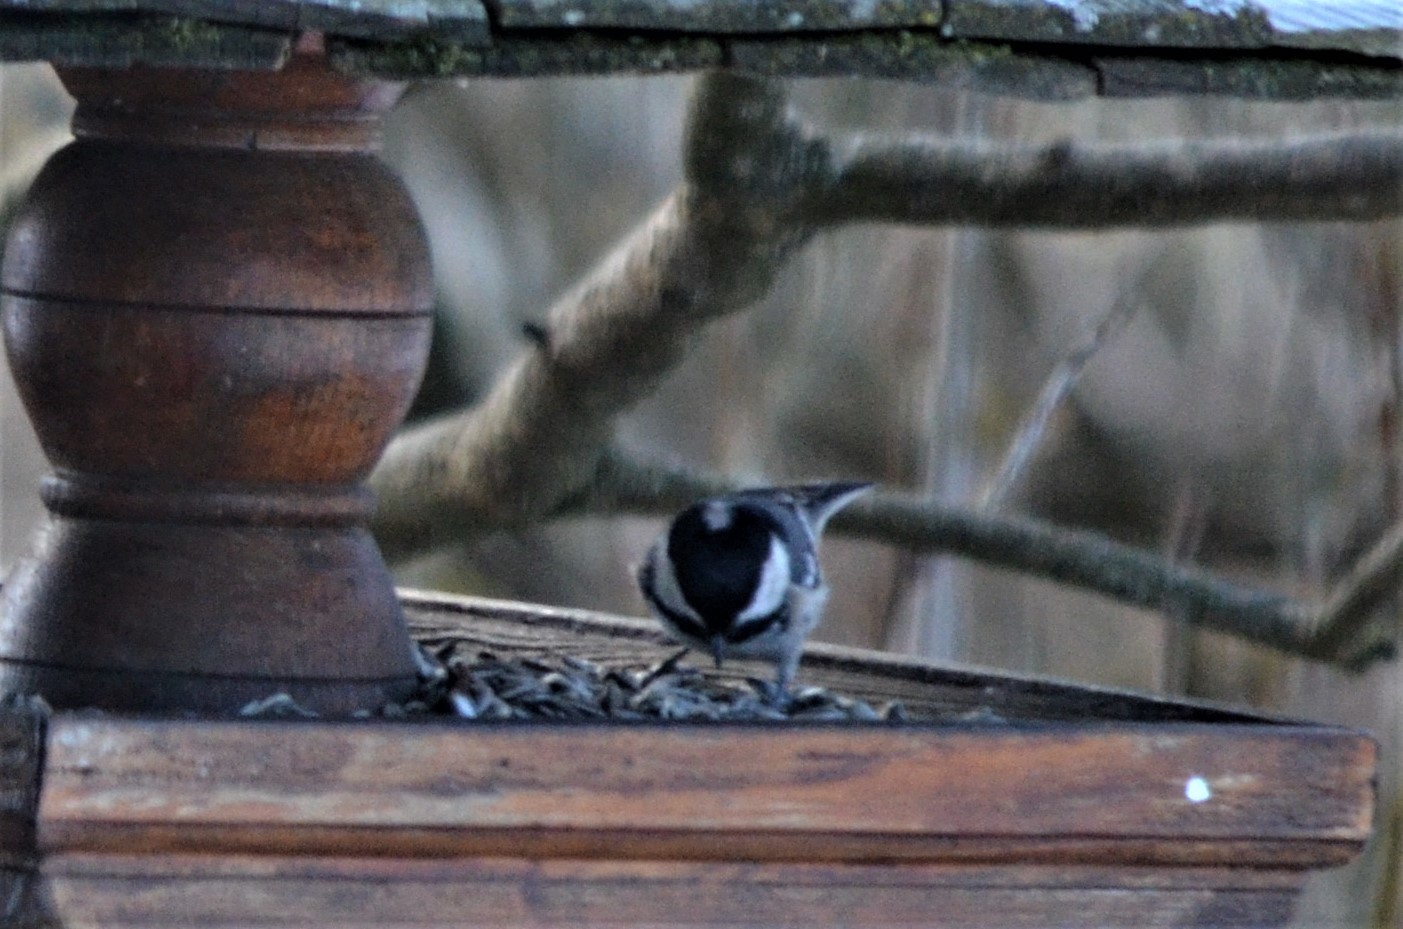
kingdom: Animalia
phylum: Chordata
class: Aves
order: Passeriformes
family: Paridae
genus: Periparus
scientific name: Periparus ater
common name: Coal tit
